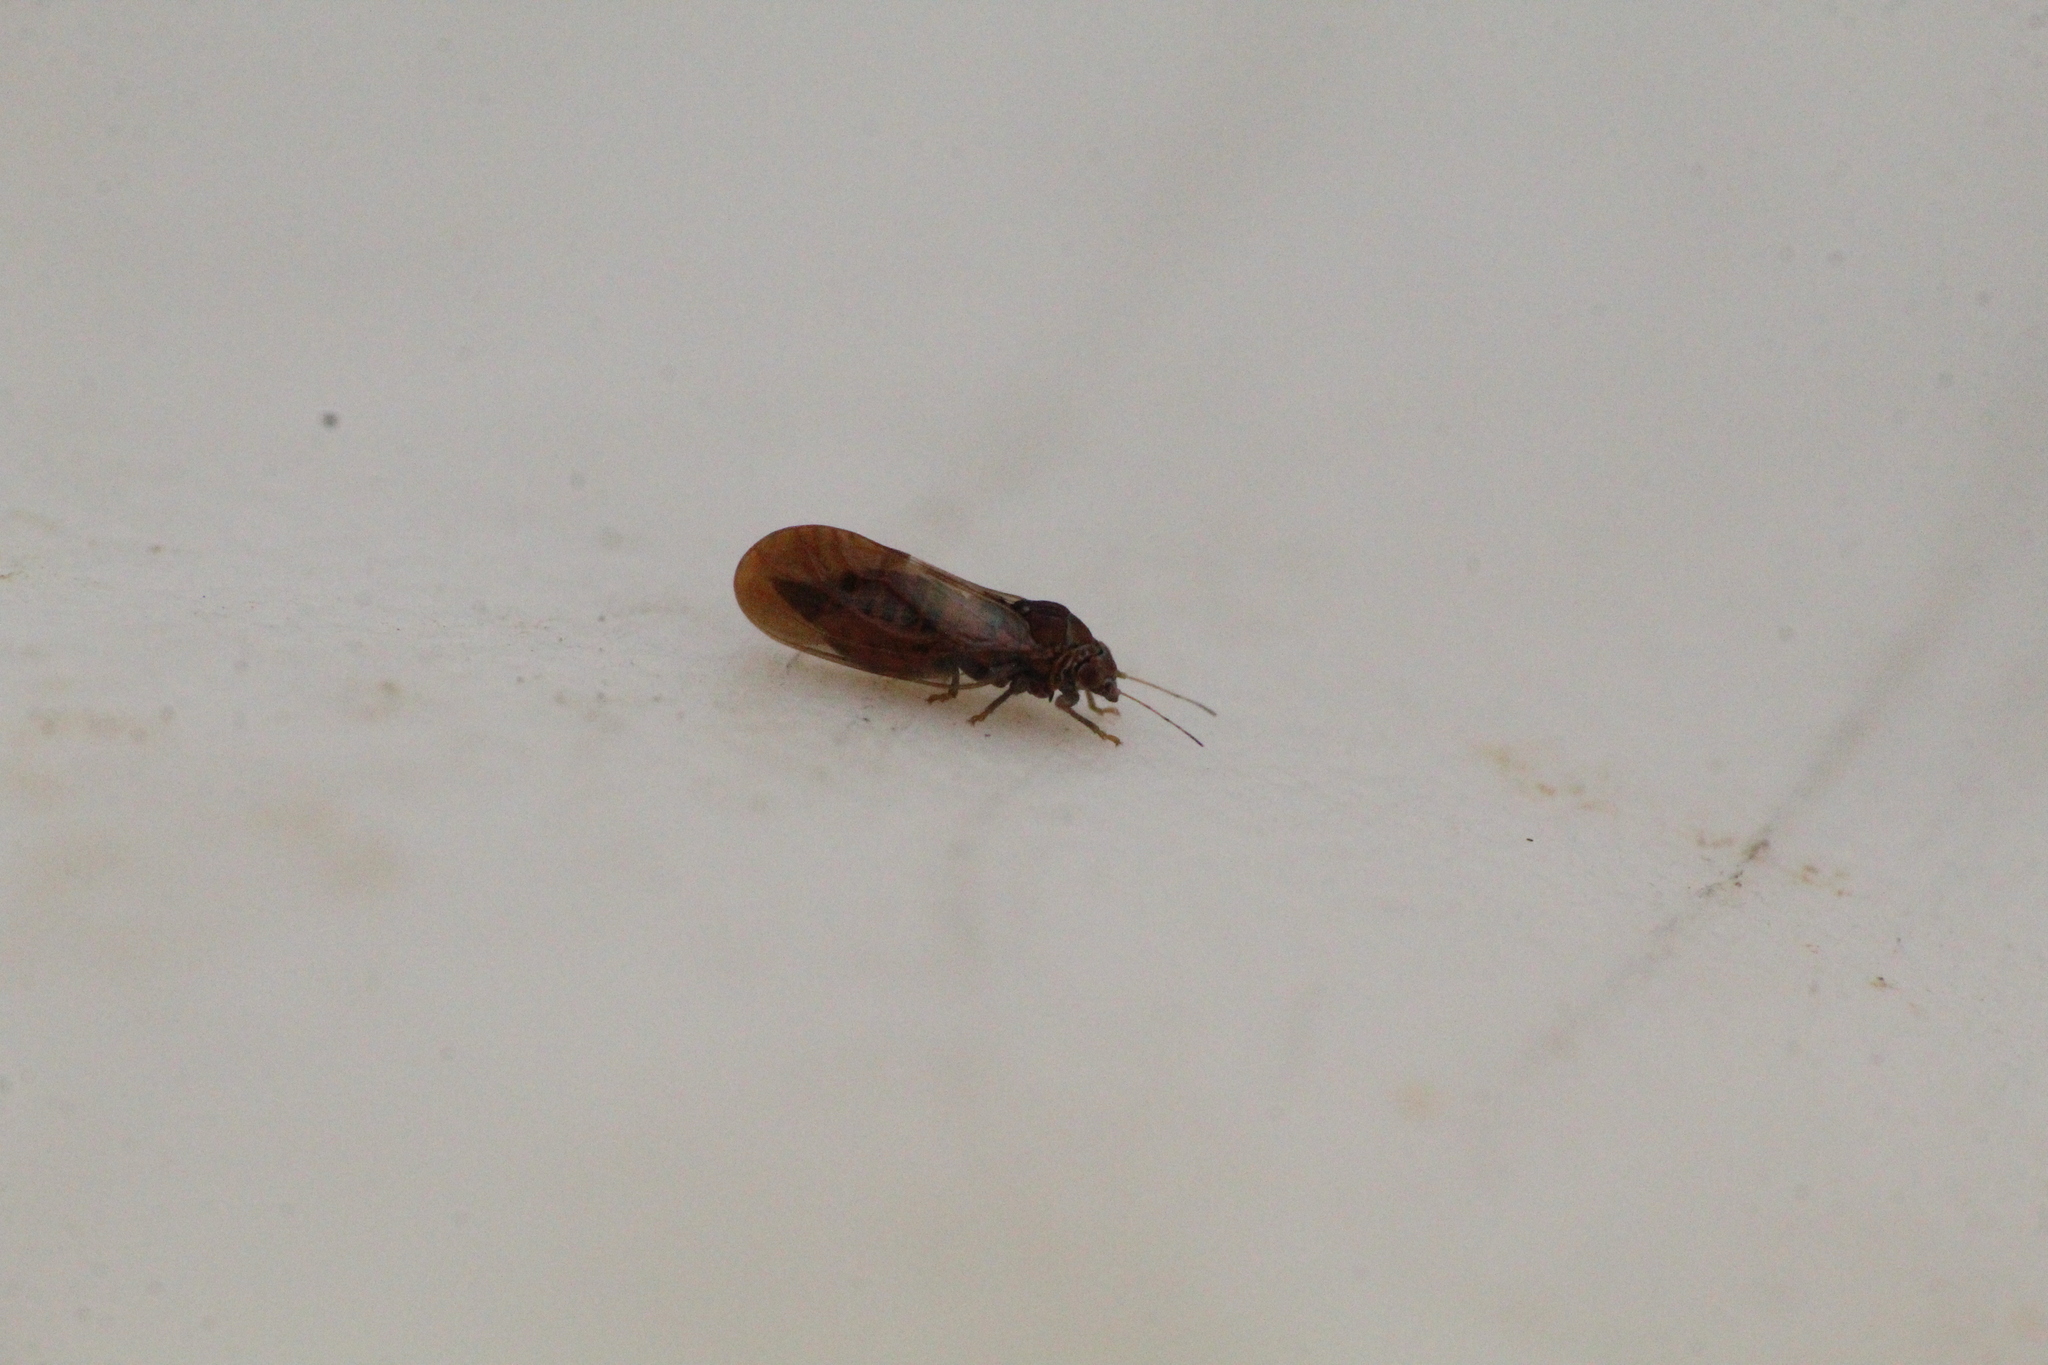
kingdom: Animalia
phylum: Arthropoda
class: Insecta
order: Hemiptera
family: Psyllidae
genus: Cacopsylla
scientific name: Cacopsylla pruni
